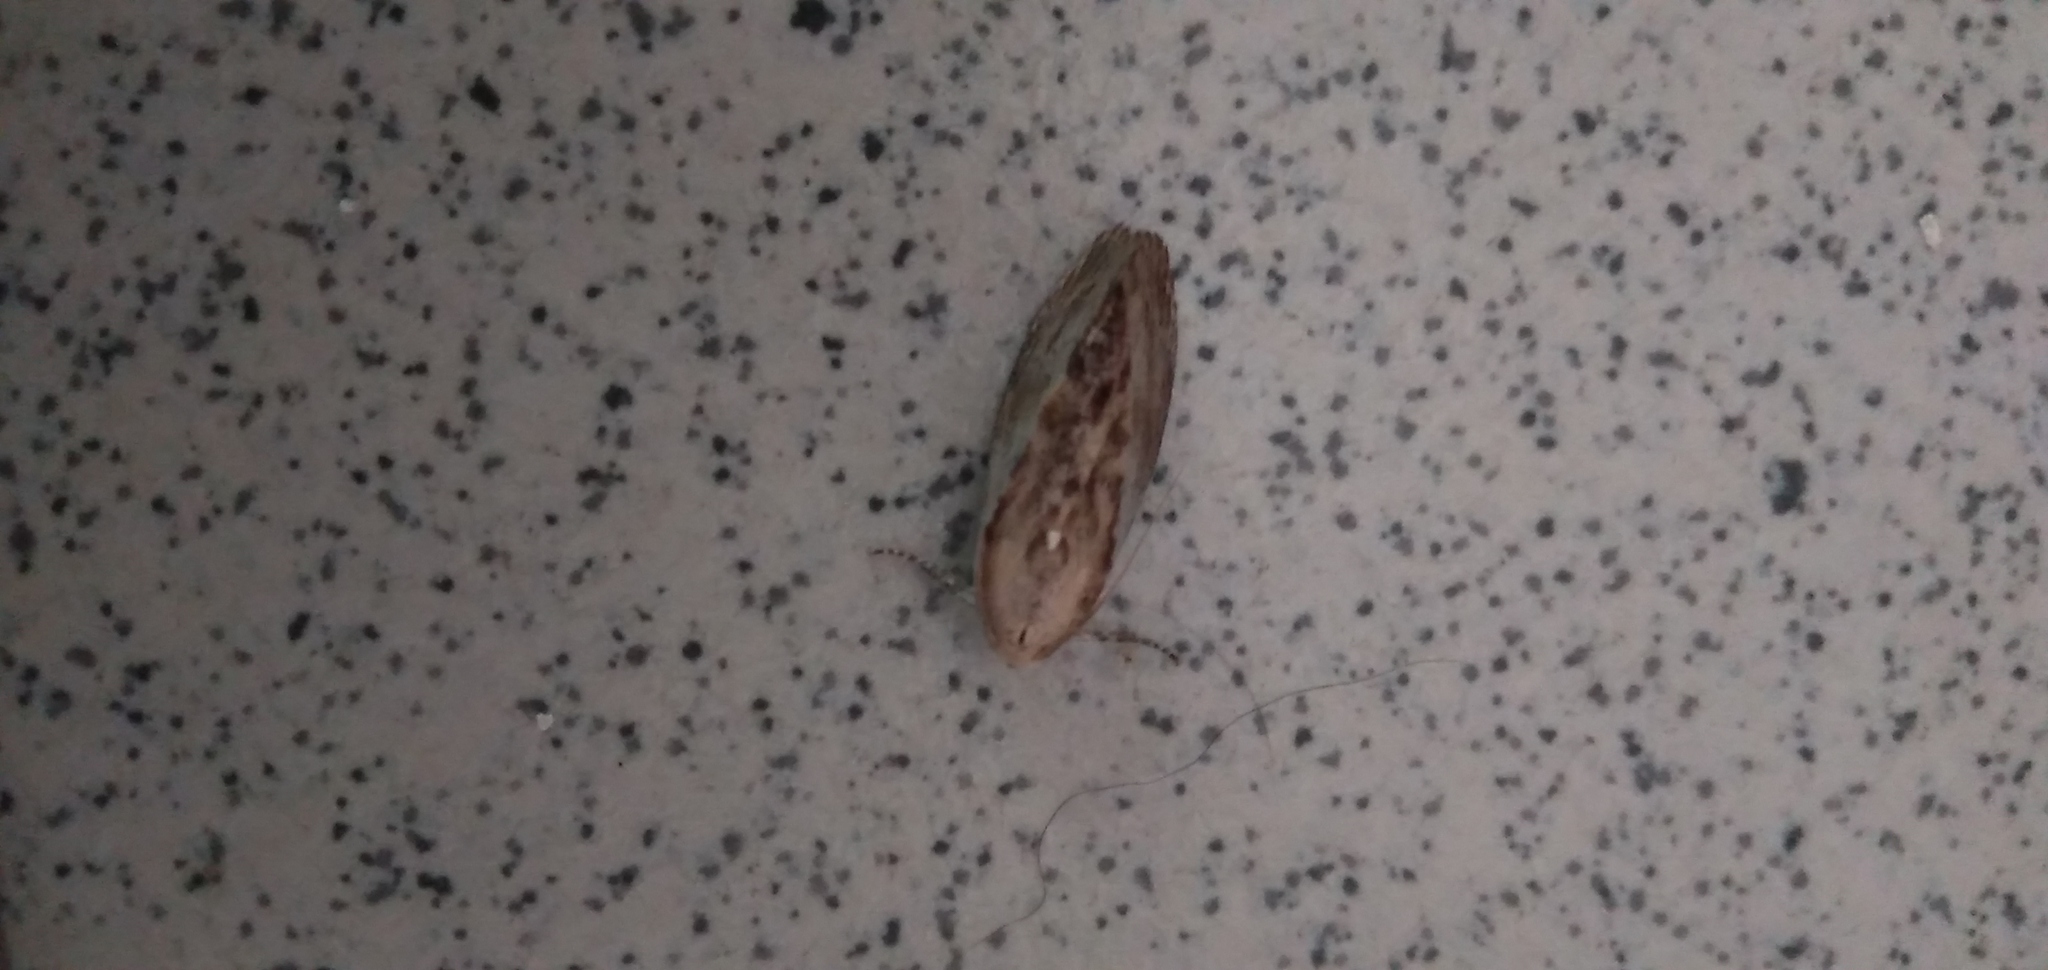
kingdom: Animalia
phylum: Arthropoda
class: Insecta
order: Lepidoptera
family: Pyralidae
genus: Galleria
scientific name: Galleria mellonella
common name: Greater wax moth
